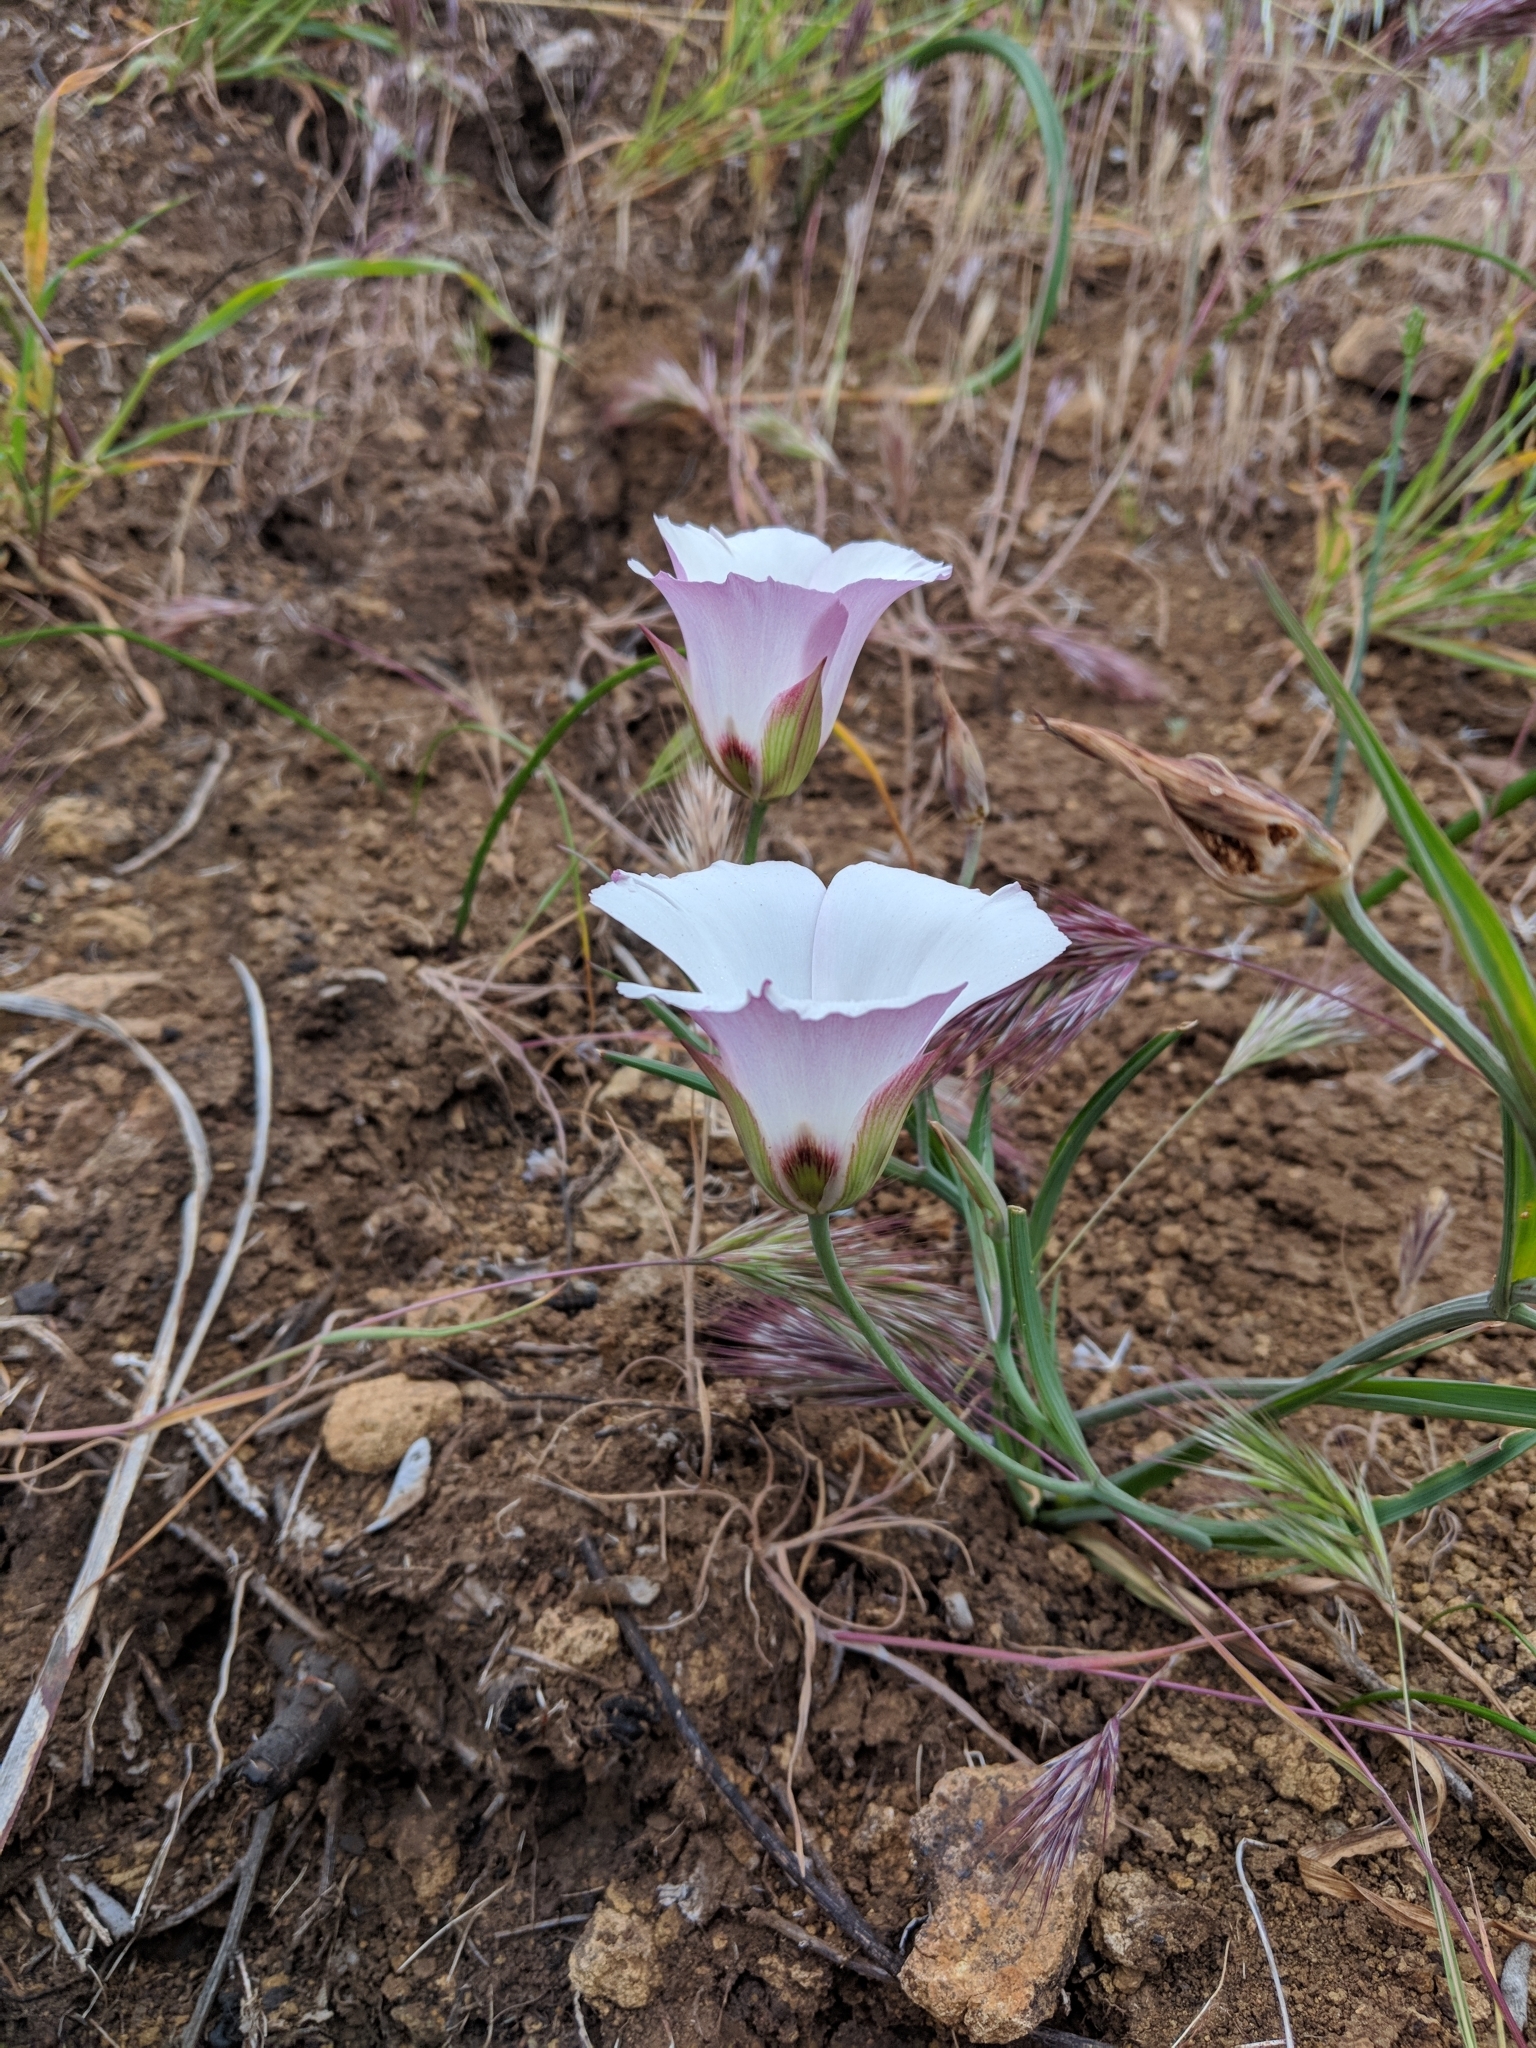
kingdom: Plantae
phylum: Tracheophyta
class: Liliopsida
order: Liliales
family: Liliaceae
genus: Calochortus
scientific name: Calochortus catalinae
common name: Catalina mariposa-lily
